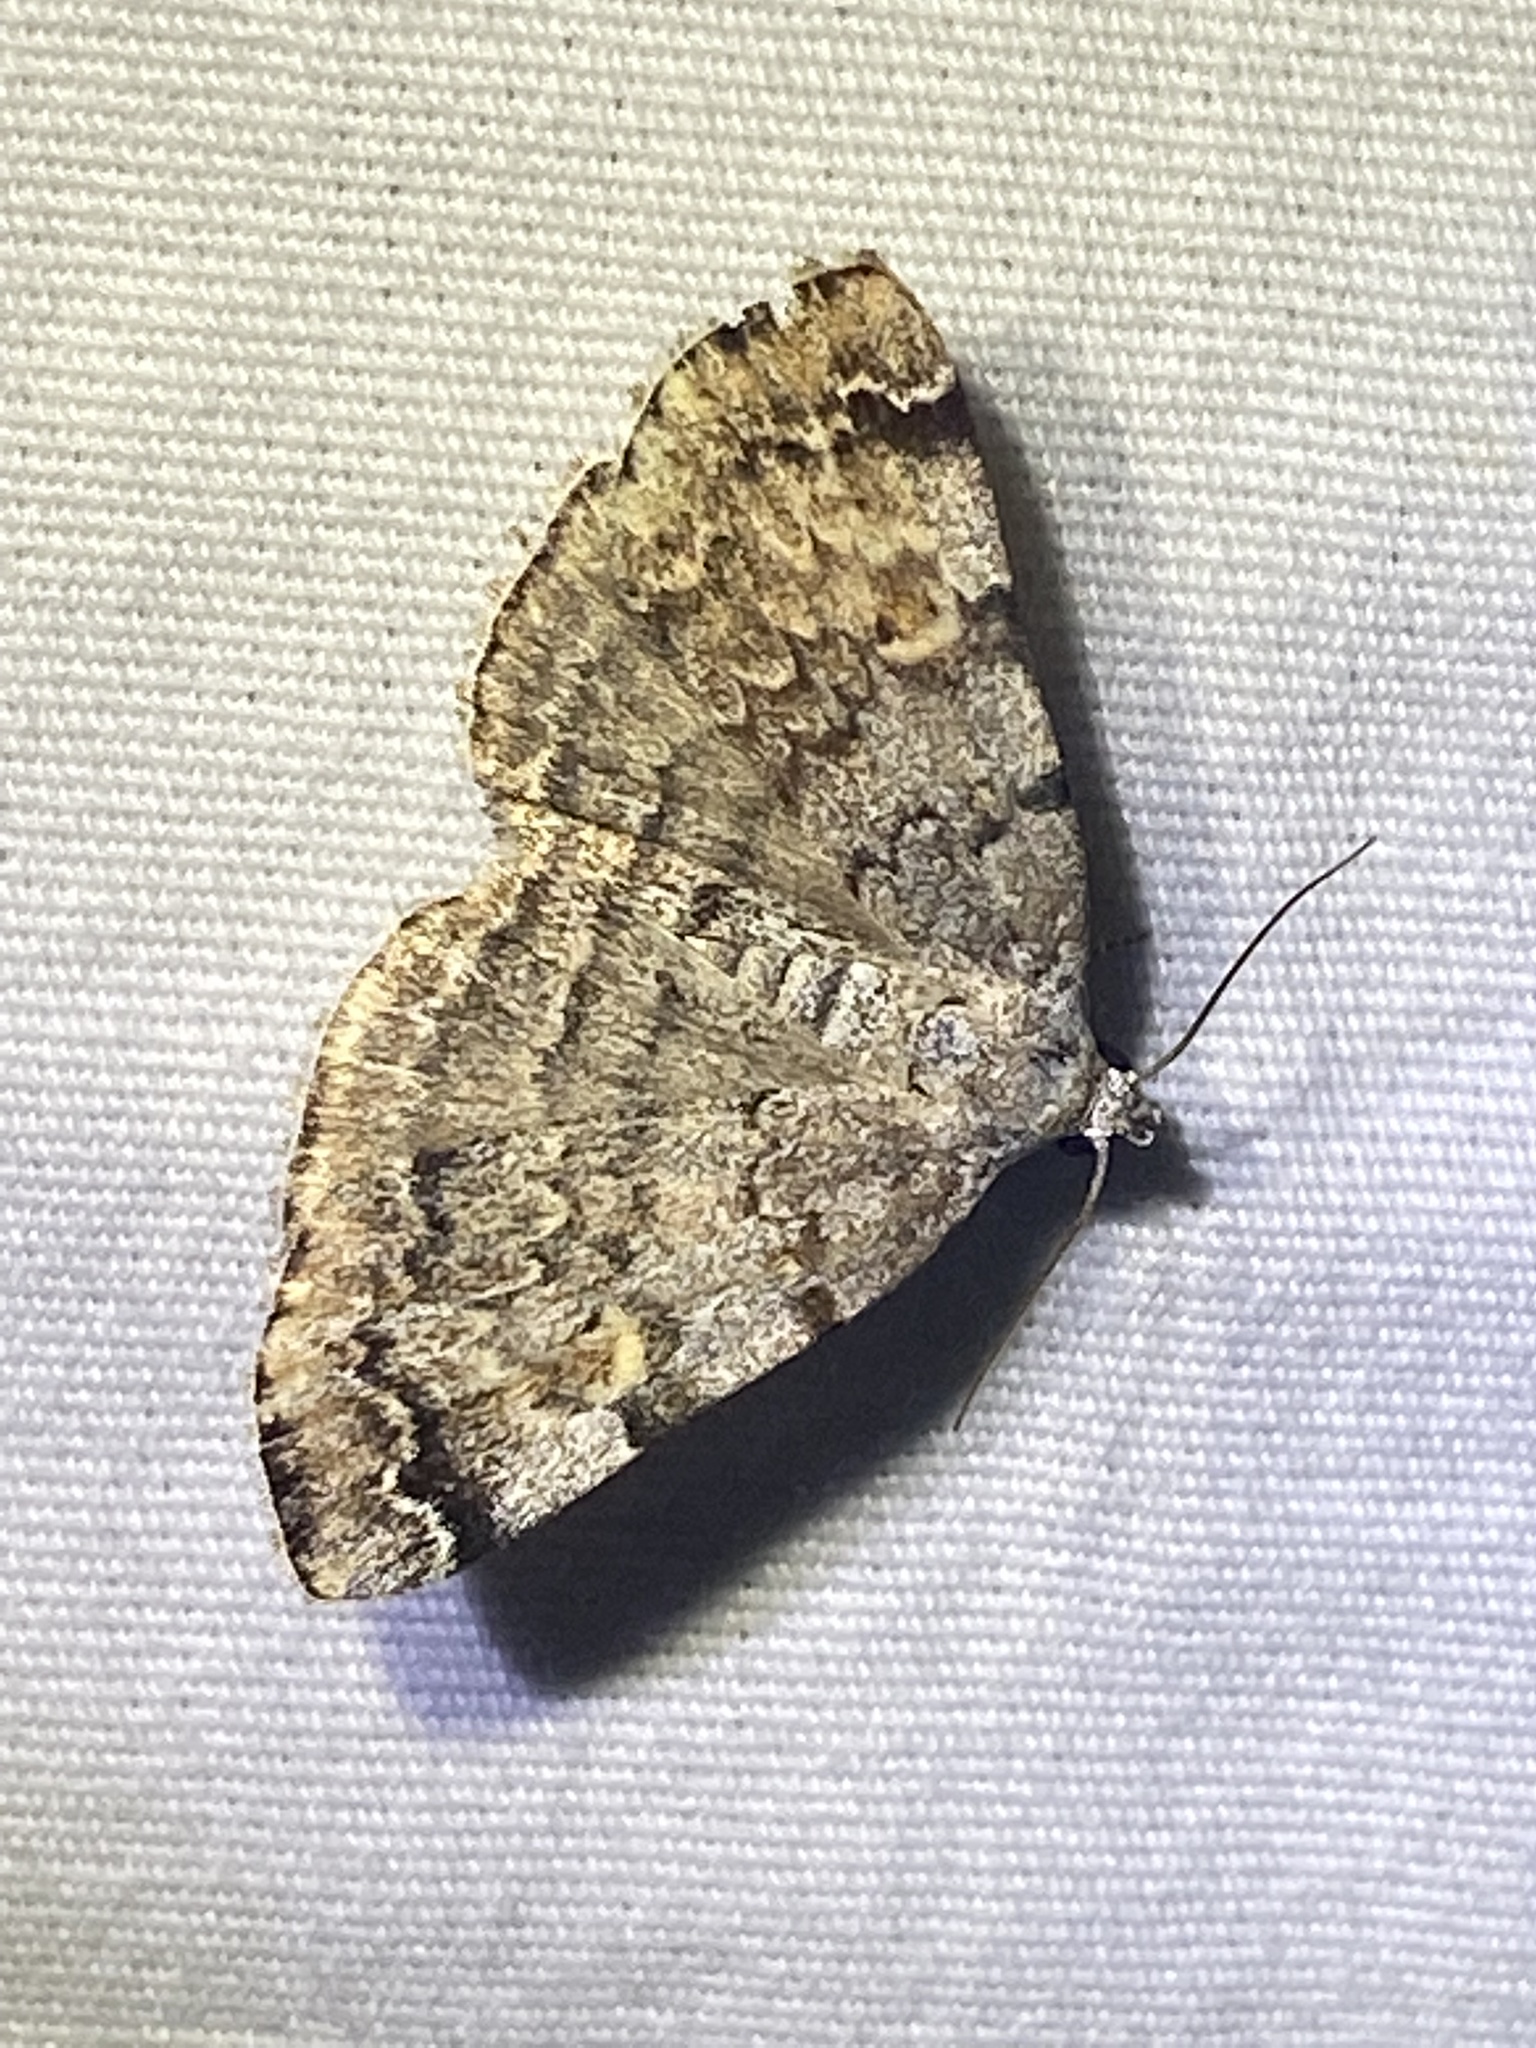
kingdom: Animalia
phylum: Arthropoda
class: Insecta
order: Lepidoptera
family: Erebidae
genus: Idia
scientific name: Idia americalis
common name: American idia moth
